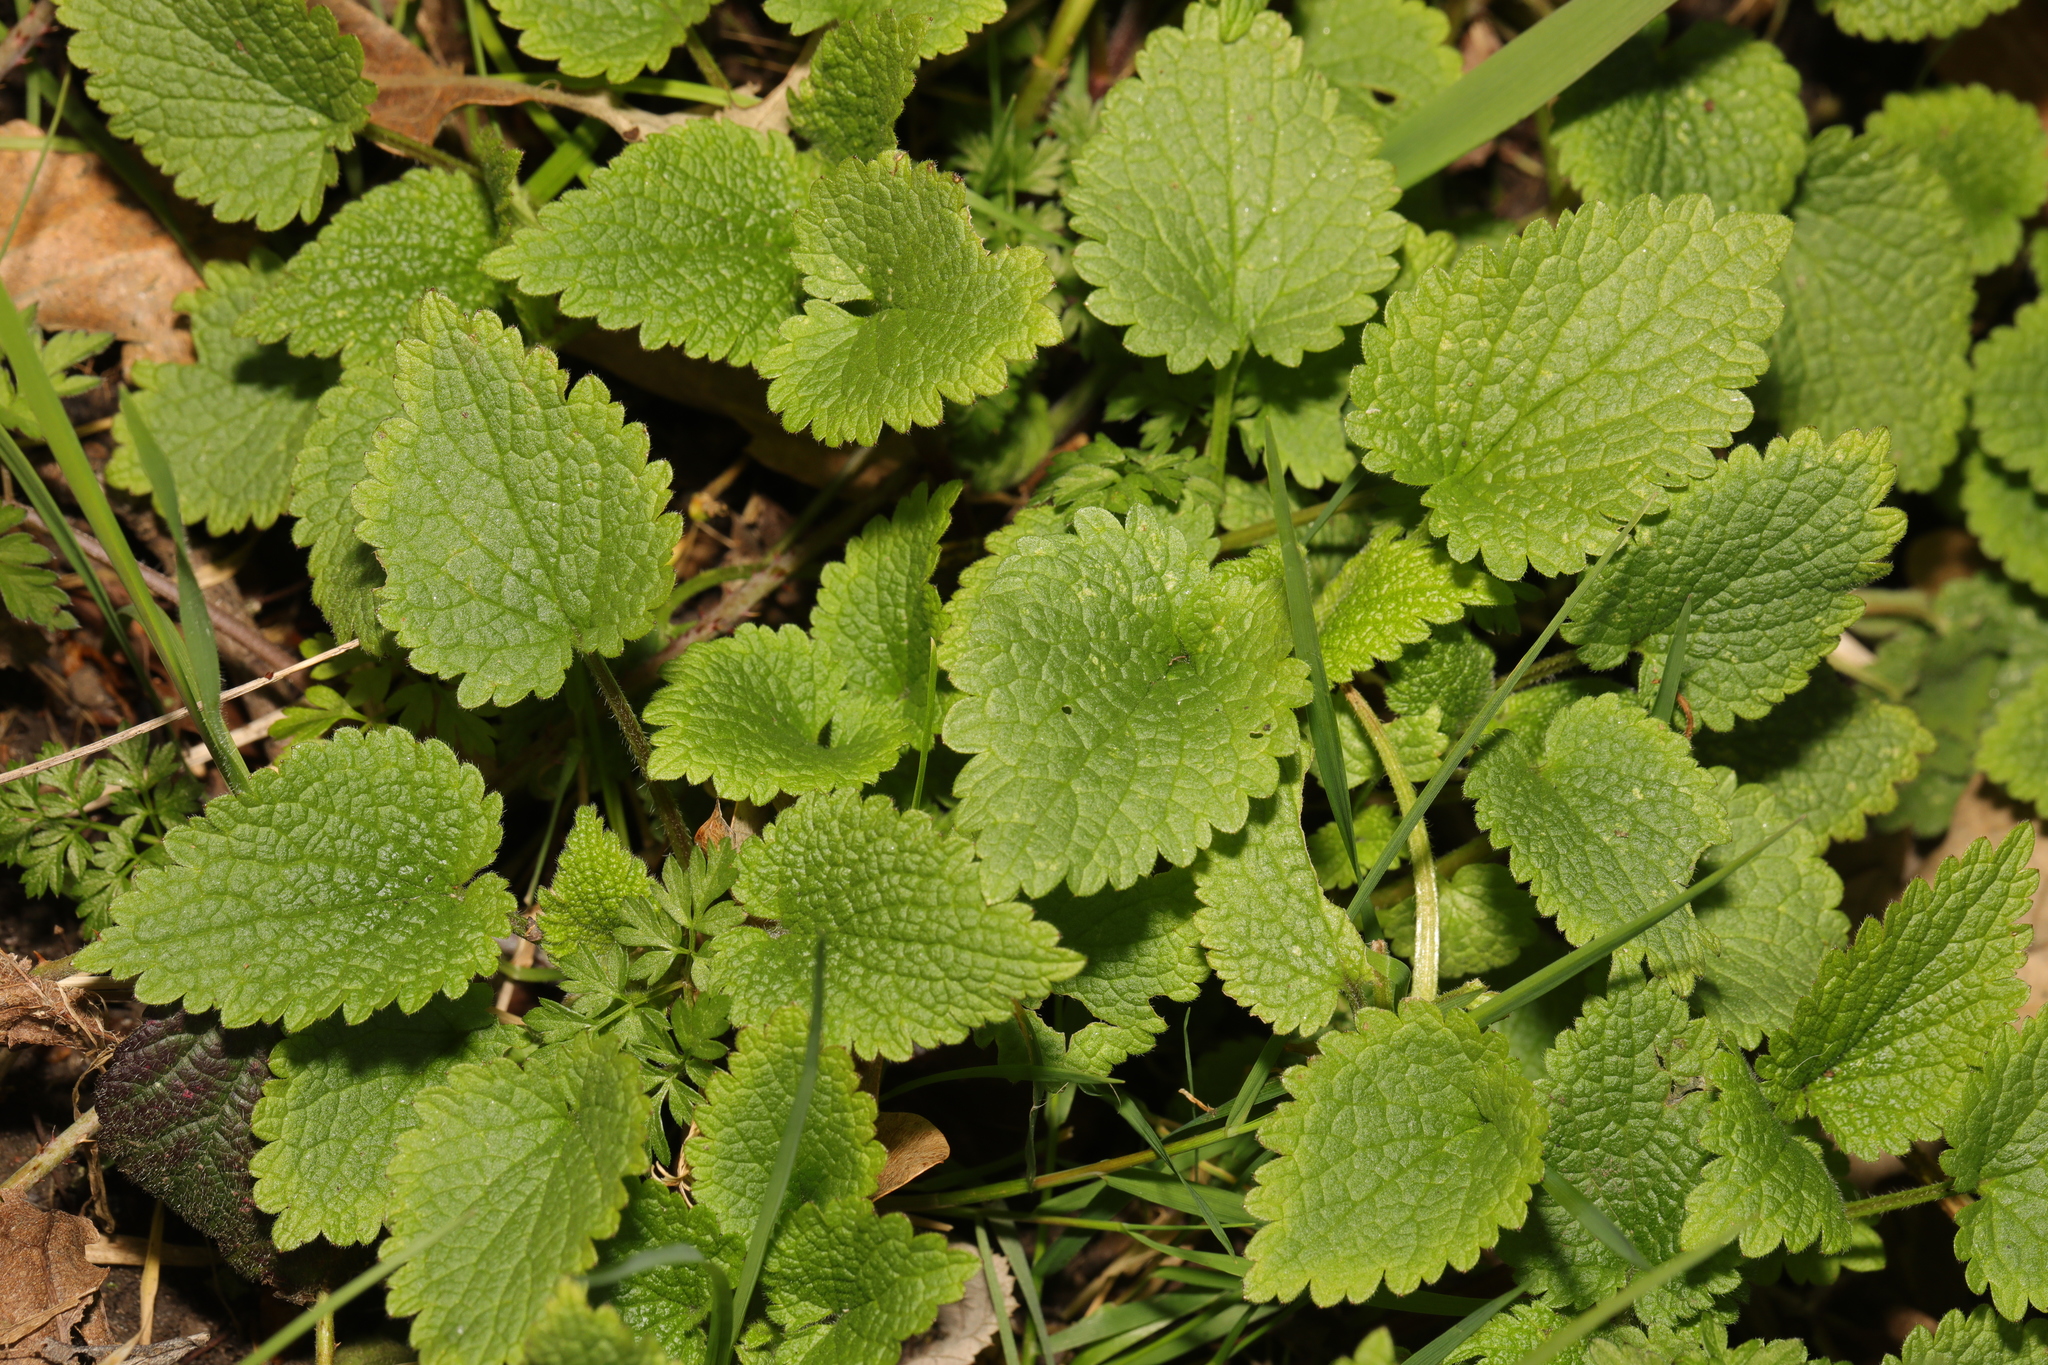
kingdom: Plantae
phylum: Tracheophyta
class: Magnoliopsida
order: Lamiales
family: Lamiaceae
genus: Lamium
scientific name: Lamium album
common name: White dead-nettle
